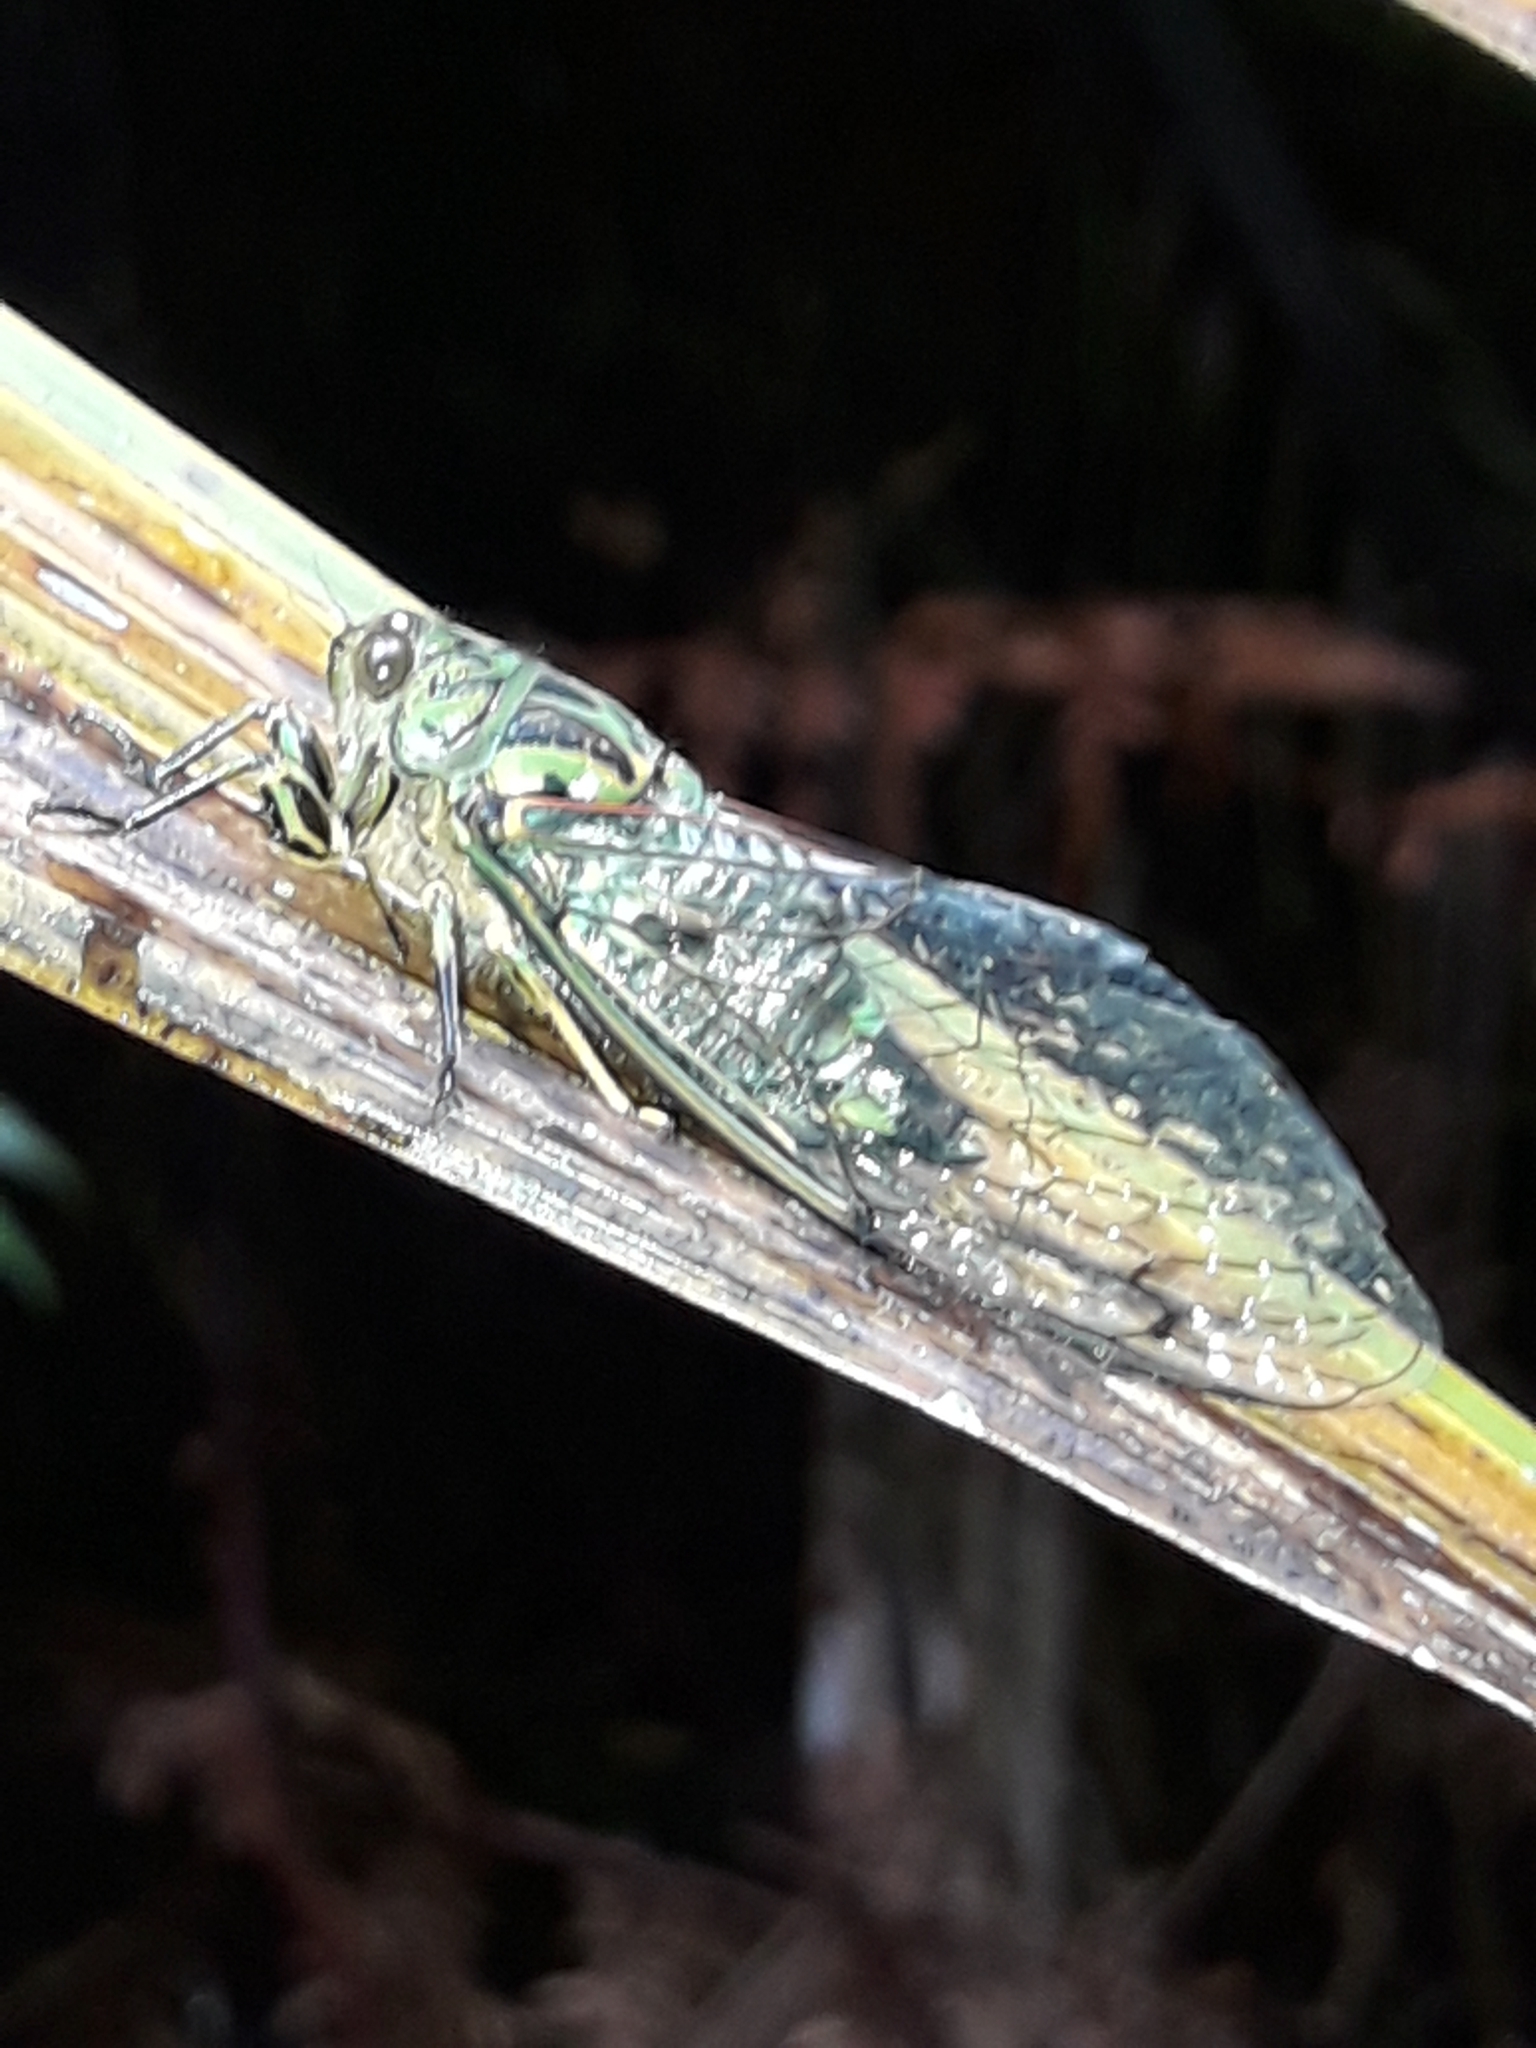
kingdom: Animalia
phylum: Arthropoda
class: Insecta
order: Hemiptera
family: Cicadidae
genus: Amphipsalta
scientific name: Amphipsalta zelandica
